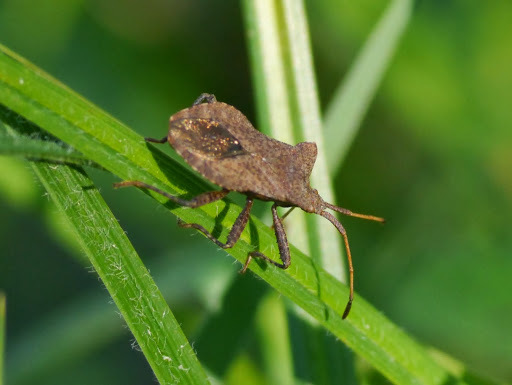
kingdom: Animalia
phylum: Arthropoda
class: Insecta
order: Hemiptera
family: Coreidae
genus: Coreus
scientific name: Coreus marginatus
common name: Dock bug
